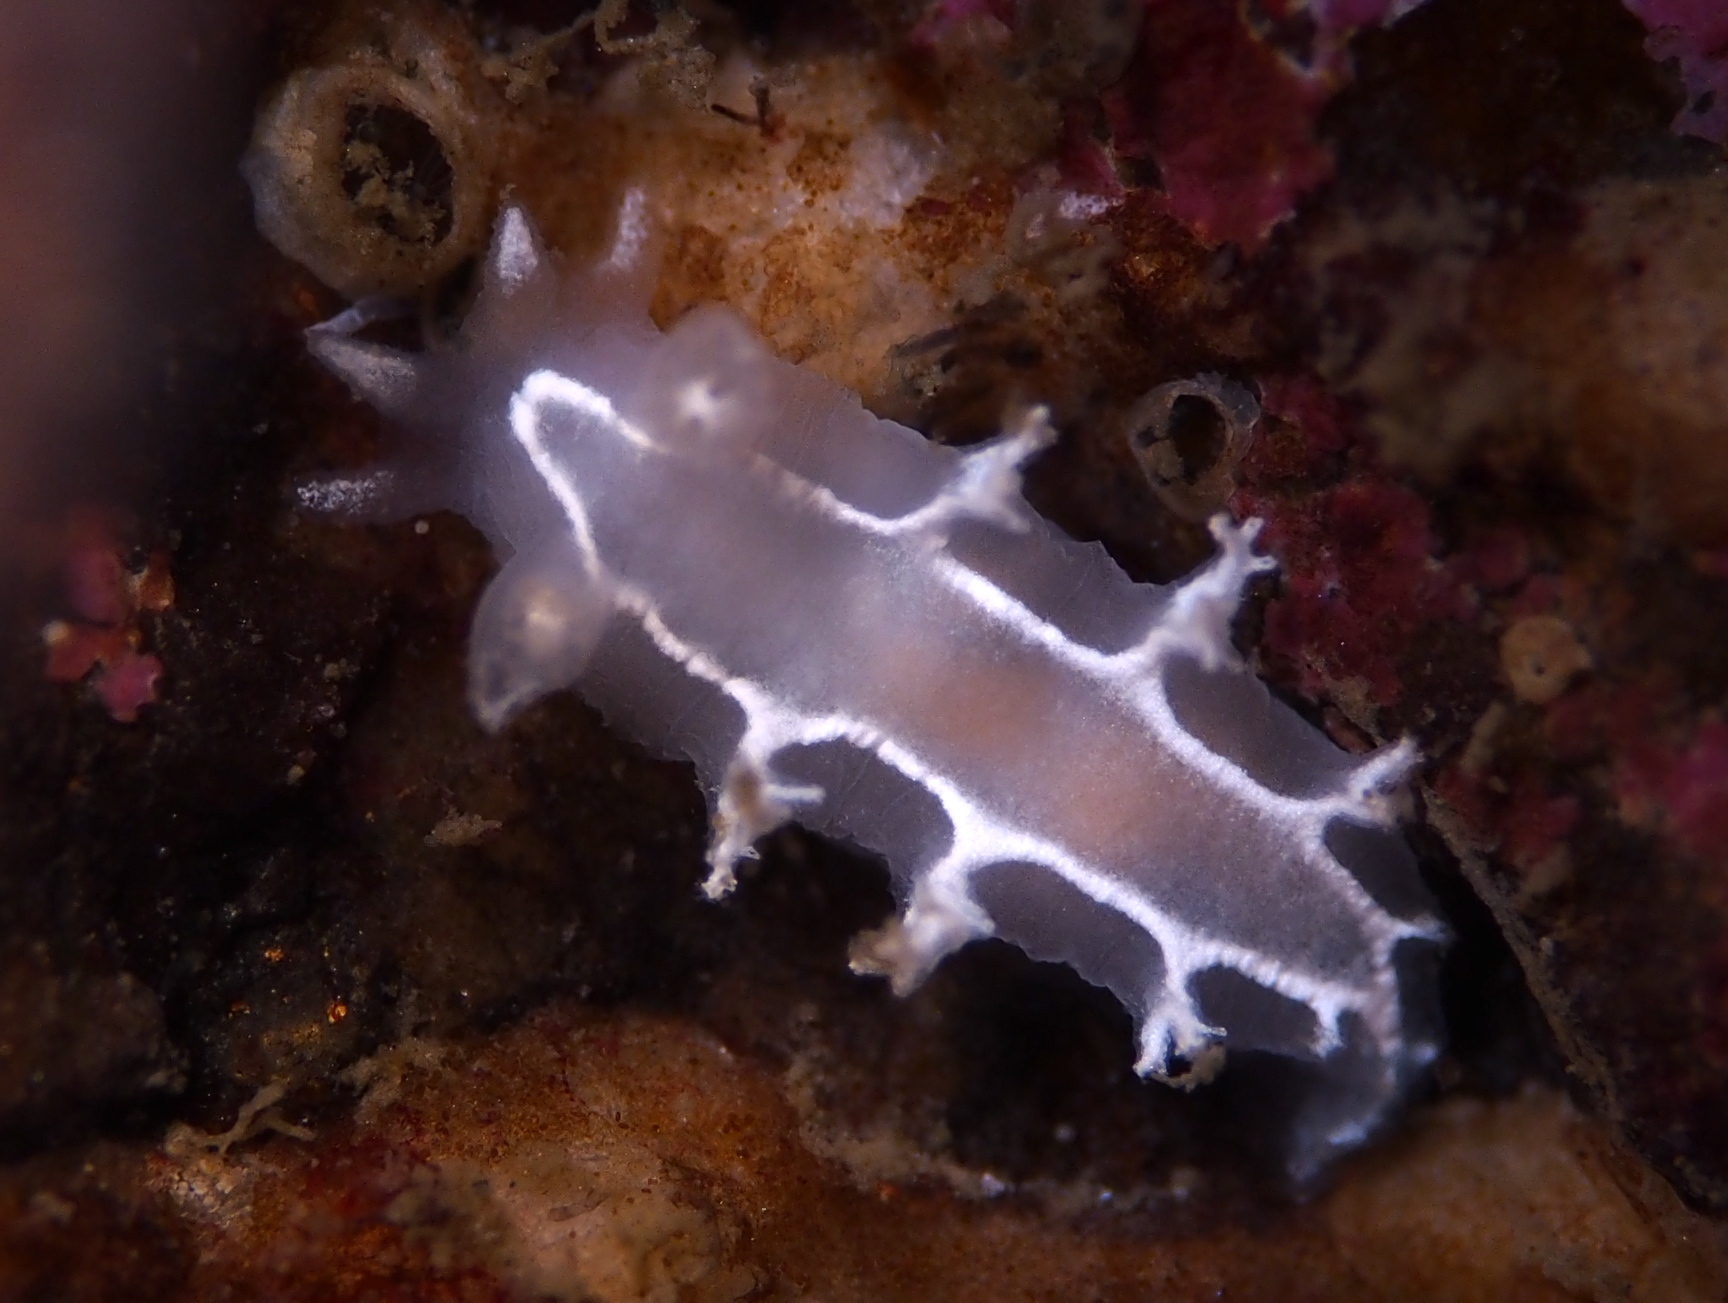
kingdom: Animalia
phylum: Mollusca
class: Gastropoda
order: Nudibranchia
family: Tritoniidae
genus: Duvaucelia
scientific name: Duvaucelia lineata
